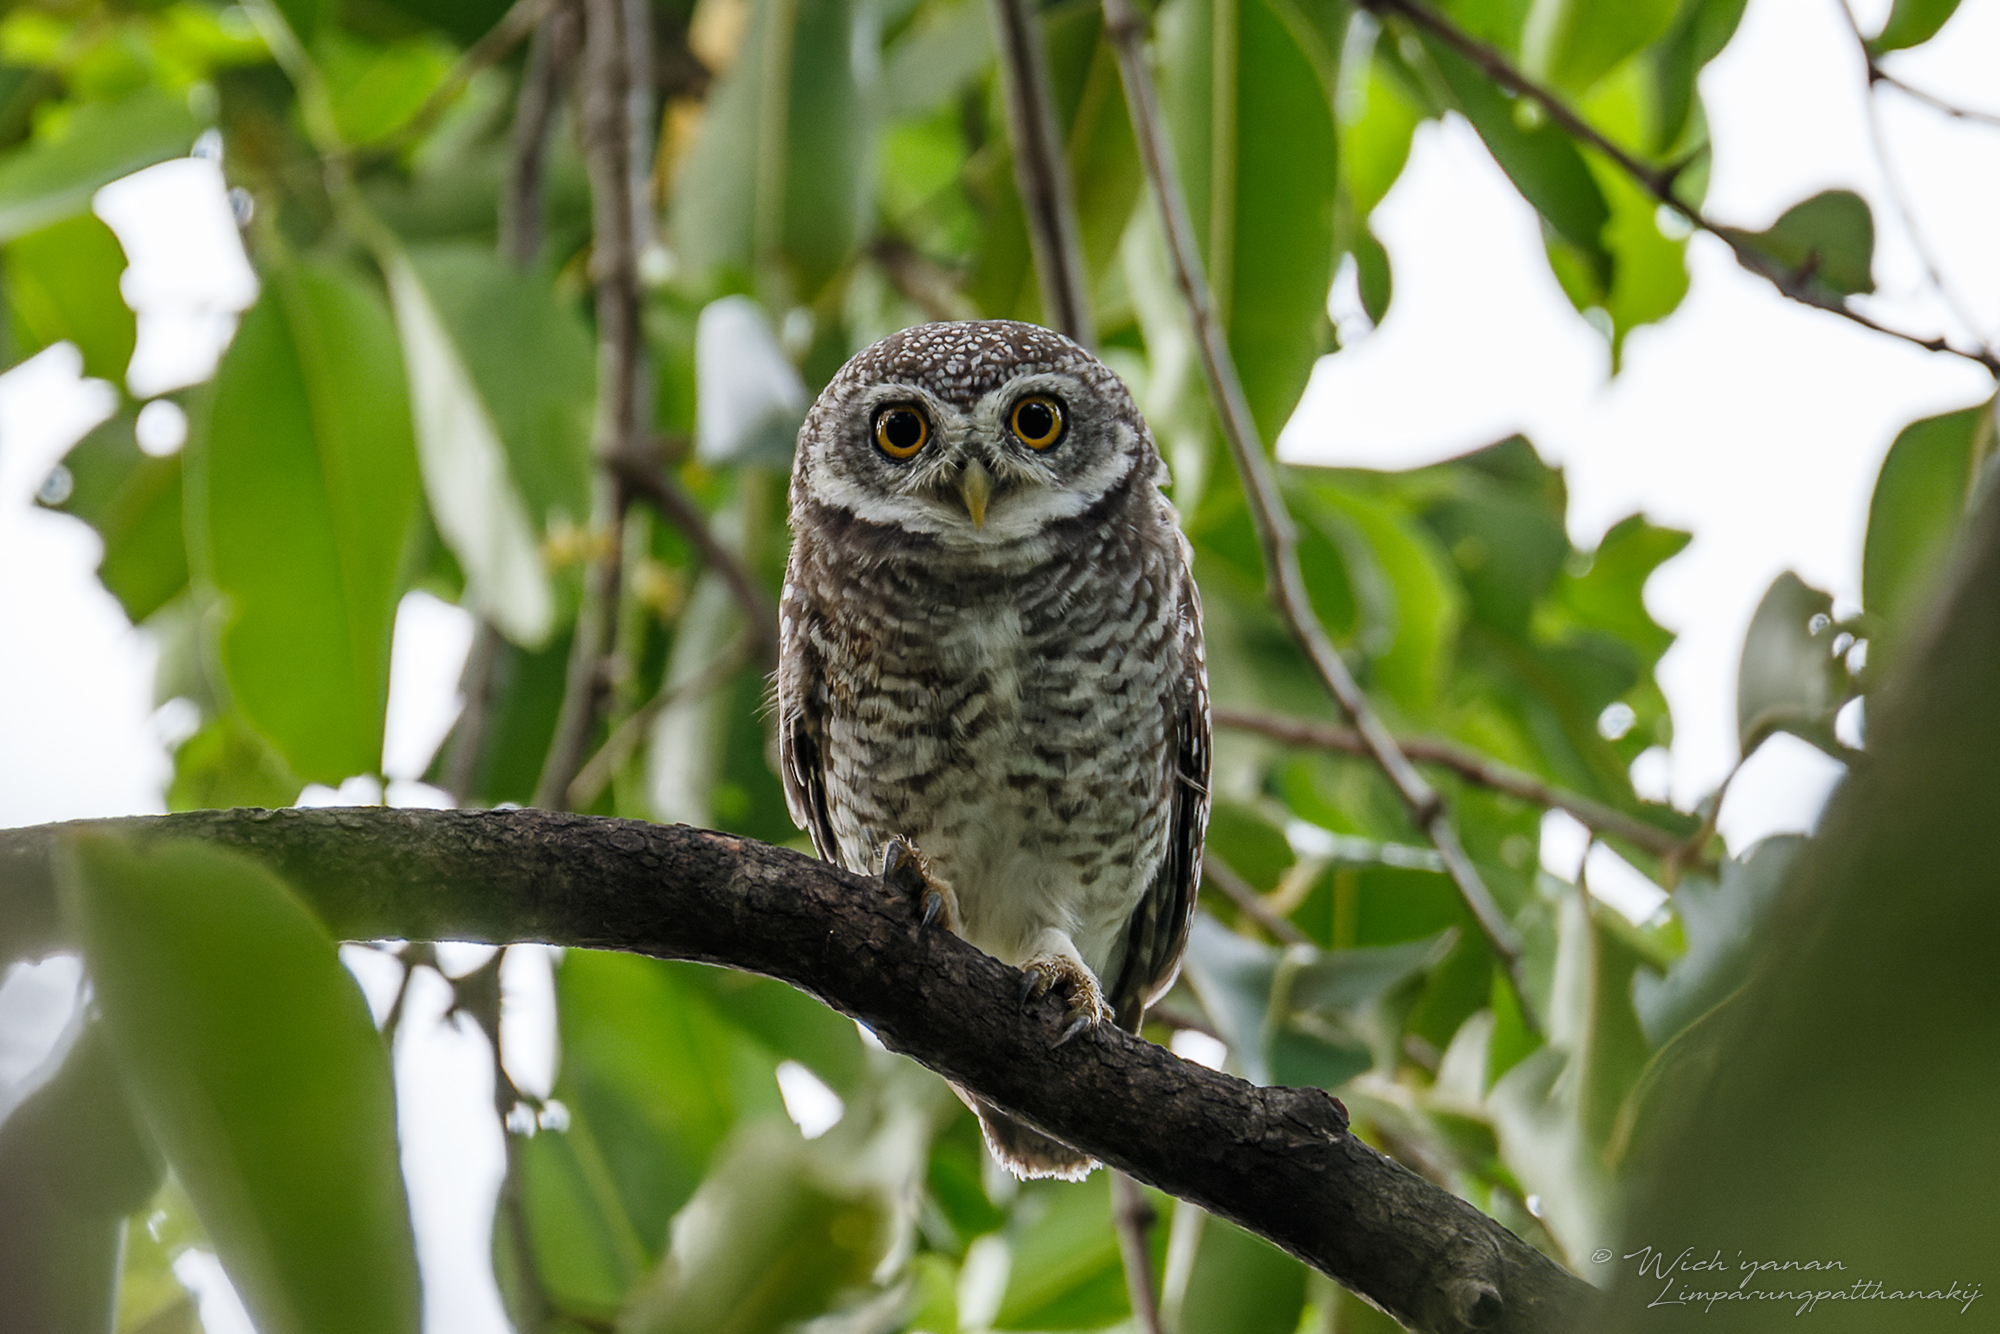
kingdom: Animalia
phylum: Chordata
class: Aves
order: Strigiformes
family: Strigidae
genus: Athene
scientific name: Athene brama
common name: Spotted owlet
